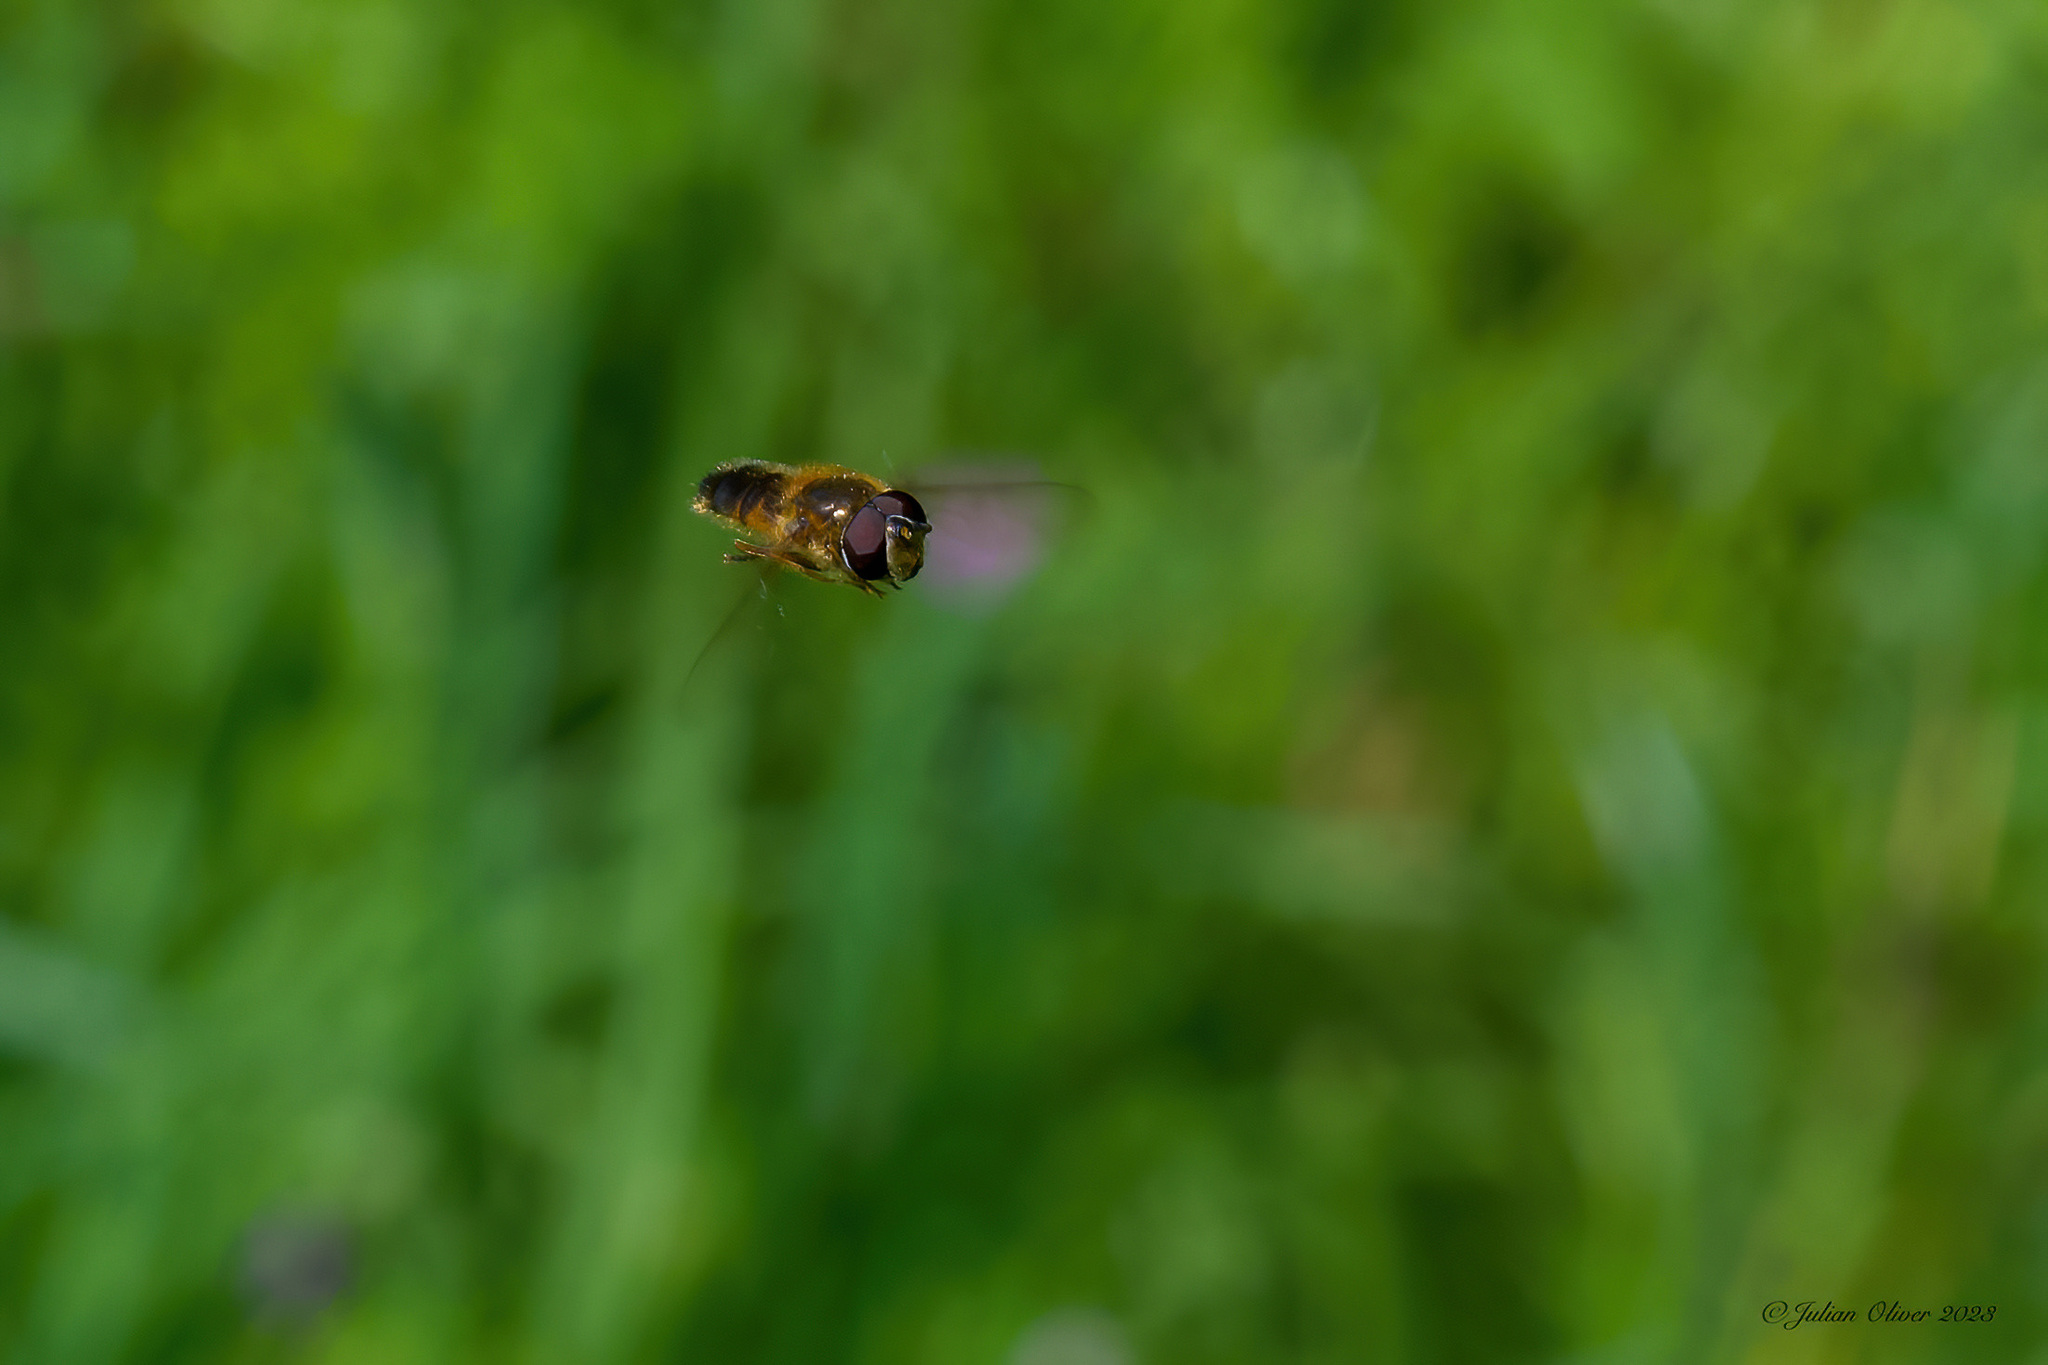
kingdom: Animalia
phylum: Arthropoda
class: Insecta
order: Diptera
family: Syrphidae
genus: Epistrophe
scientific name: Epistrophe eligans
